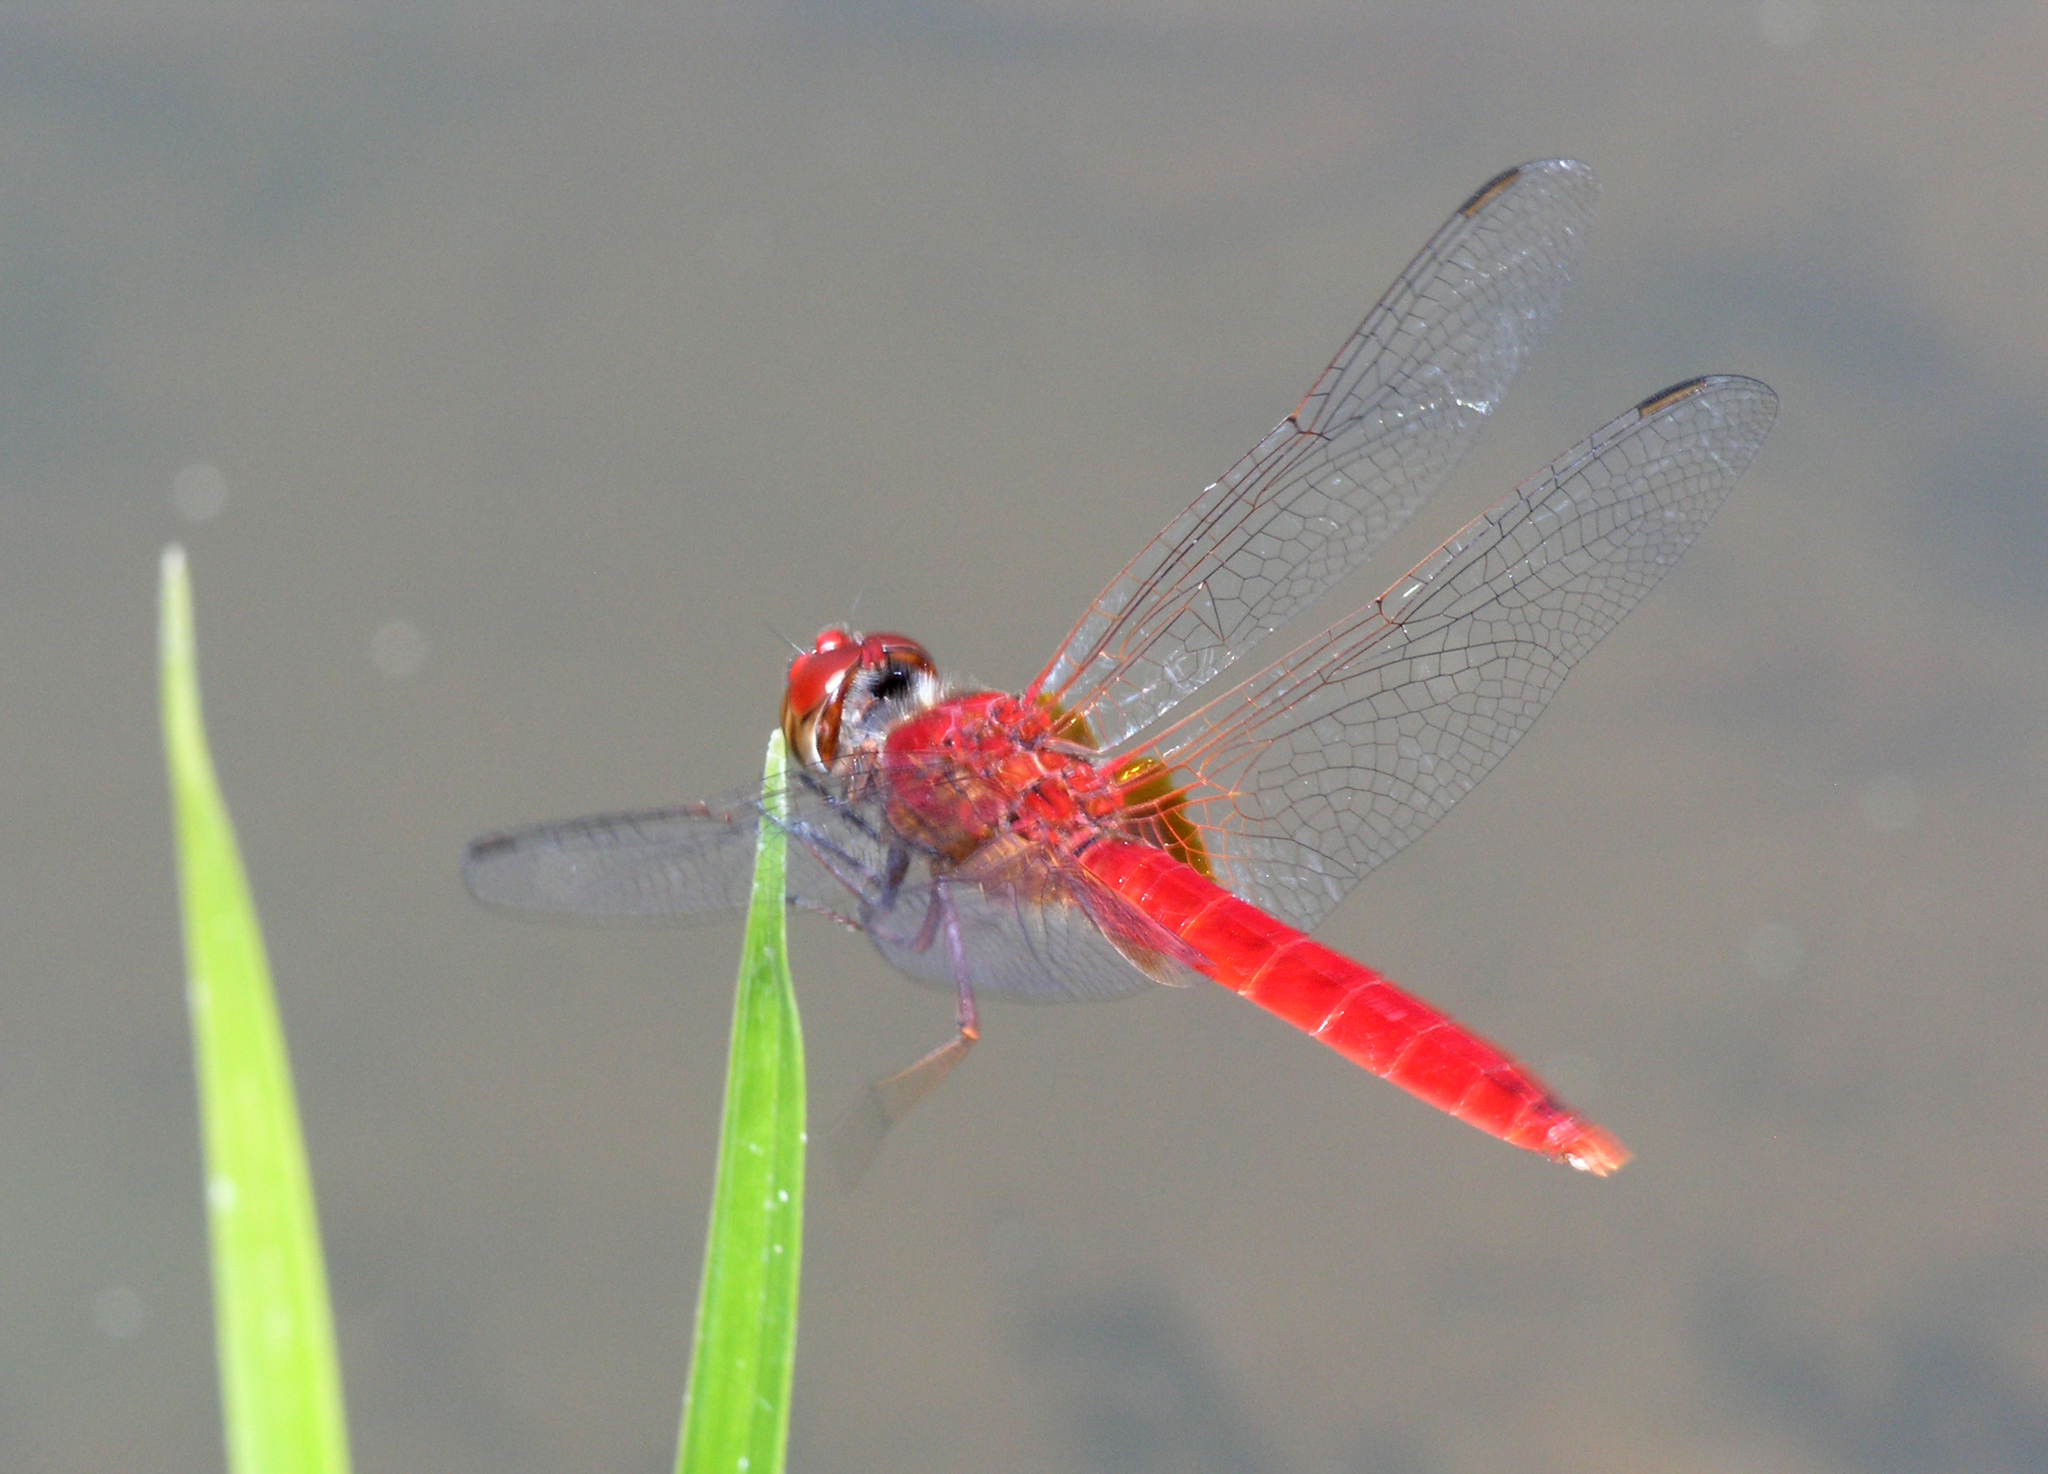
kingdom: Animalia
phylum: Arthropoda
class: Insecta
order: Odonata
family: Libellulidae
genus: Urothemis
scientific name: Urothemis signata
